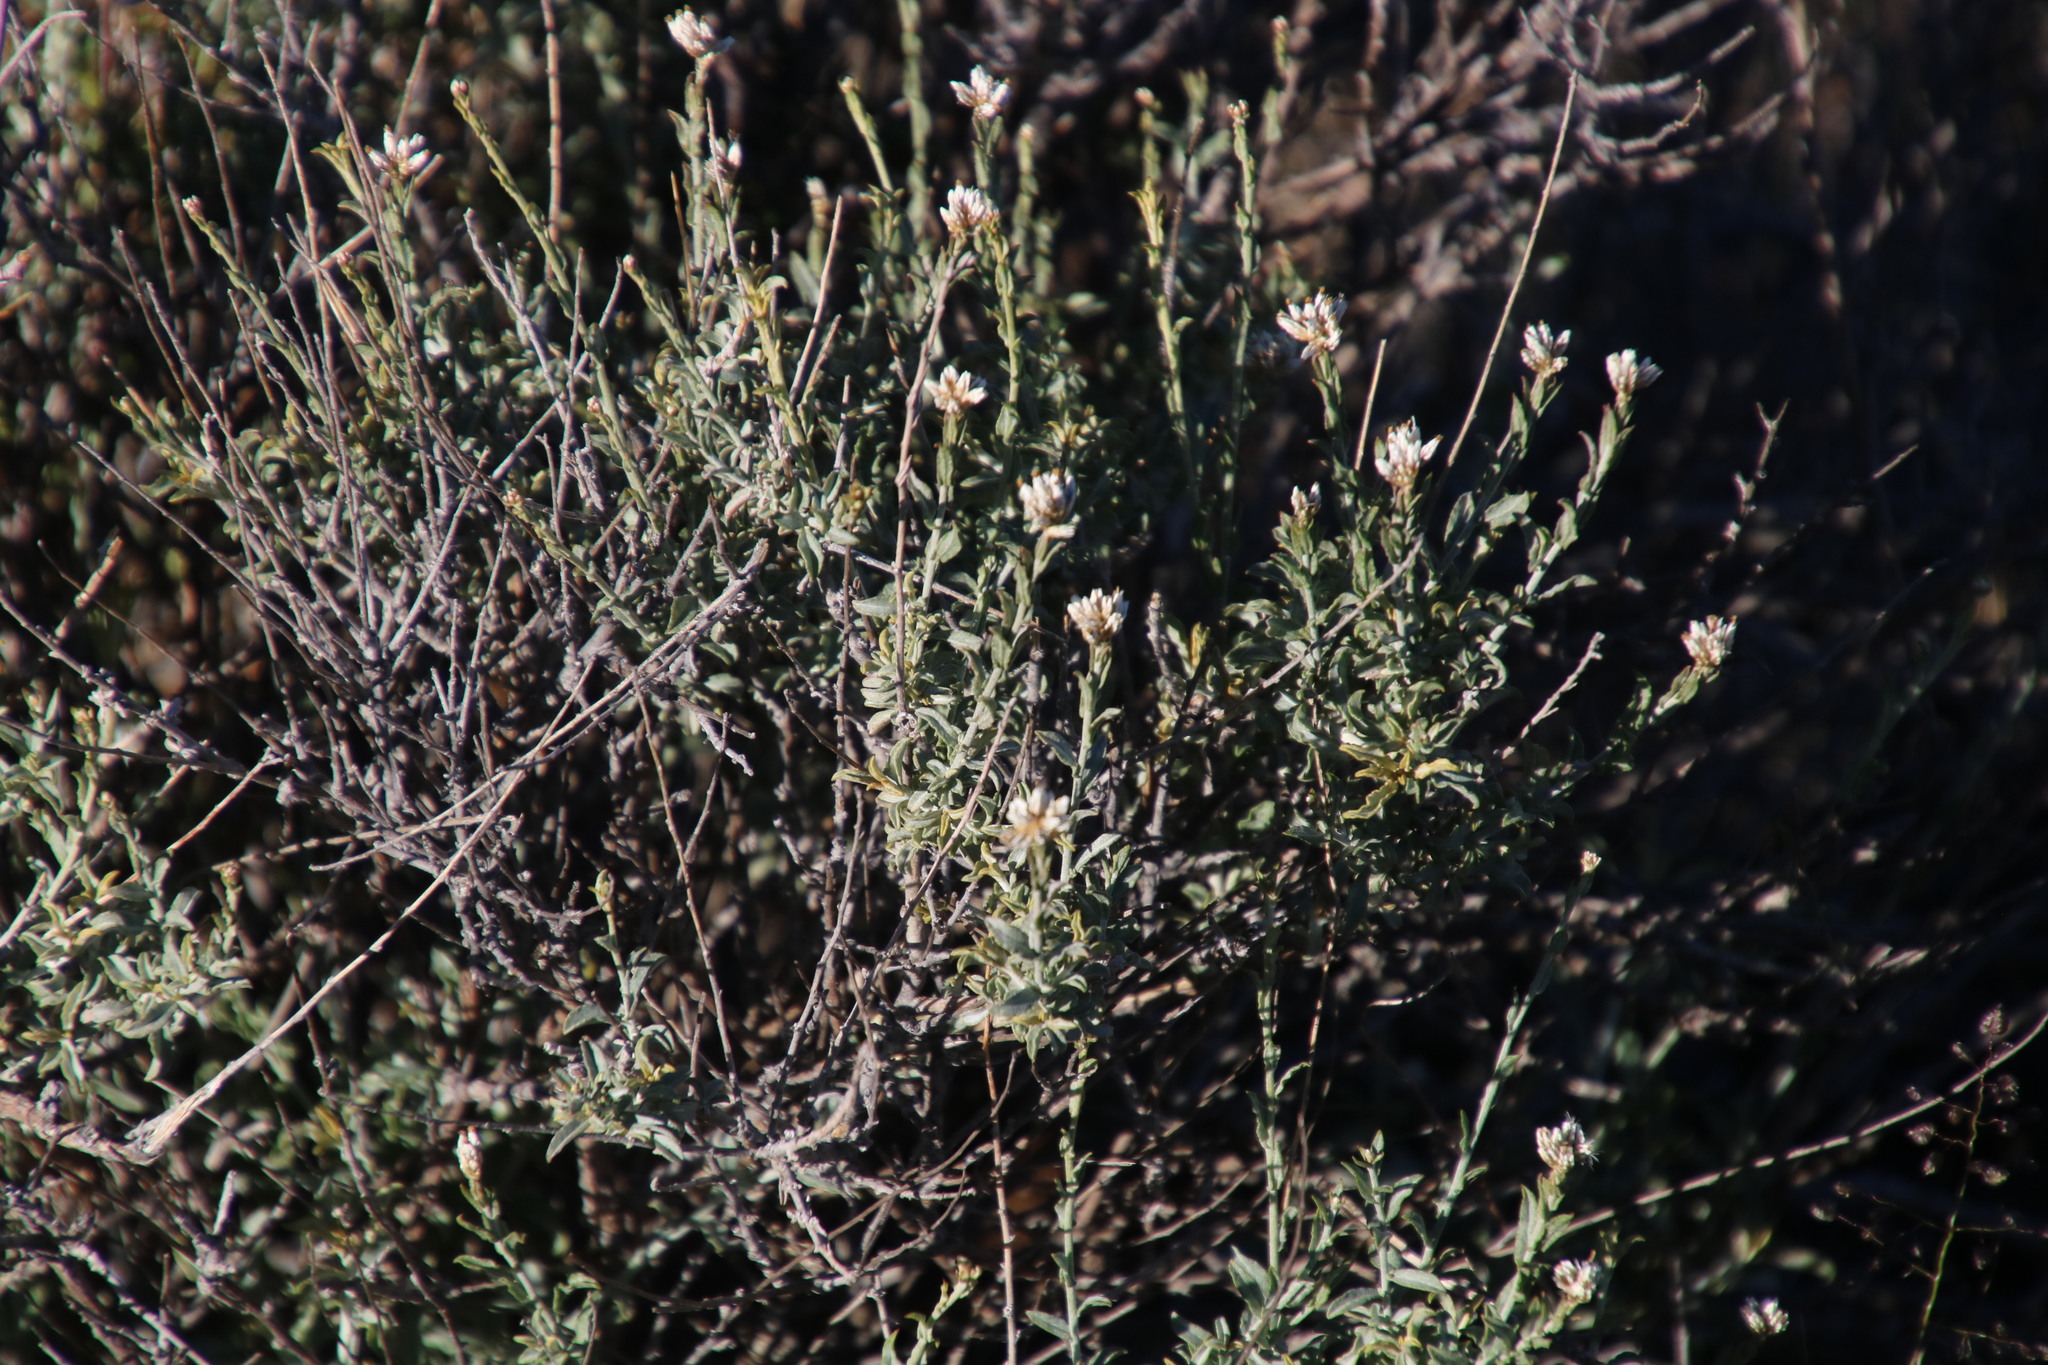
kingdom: Plantae
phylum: Tracheophyta
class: Magnoliopsida
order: Asterales
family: Asteraceae
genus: Helichrysum
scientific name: Helichrysum zeyheri
